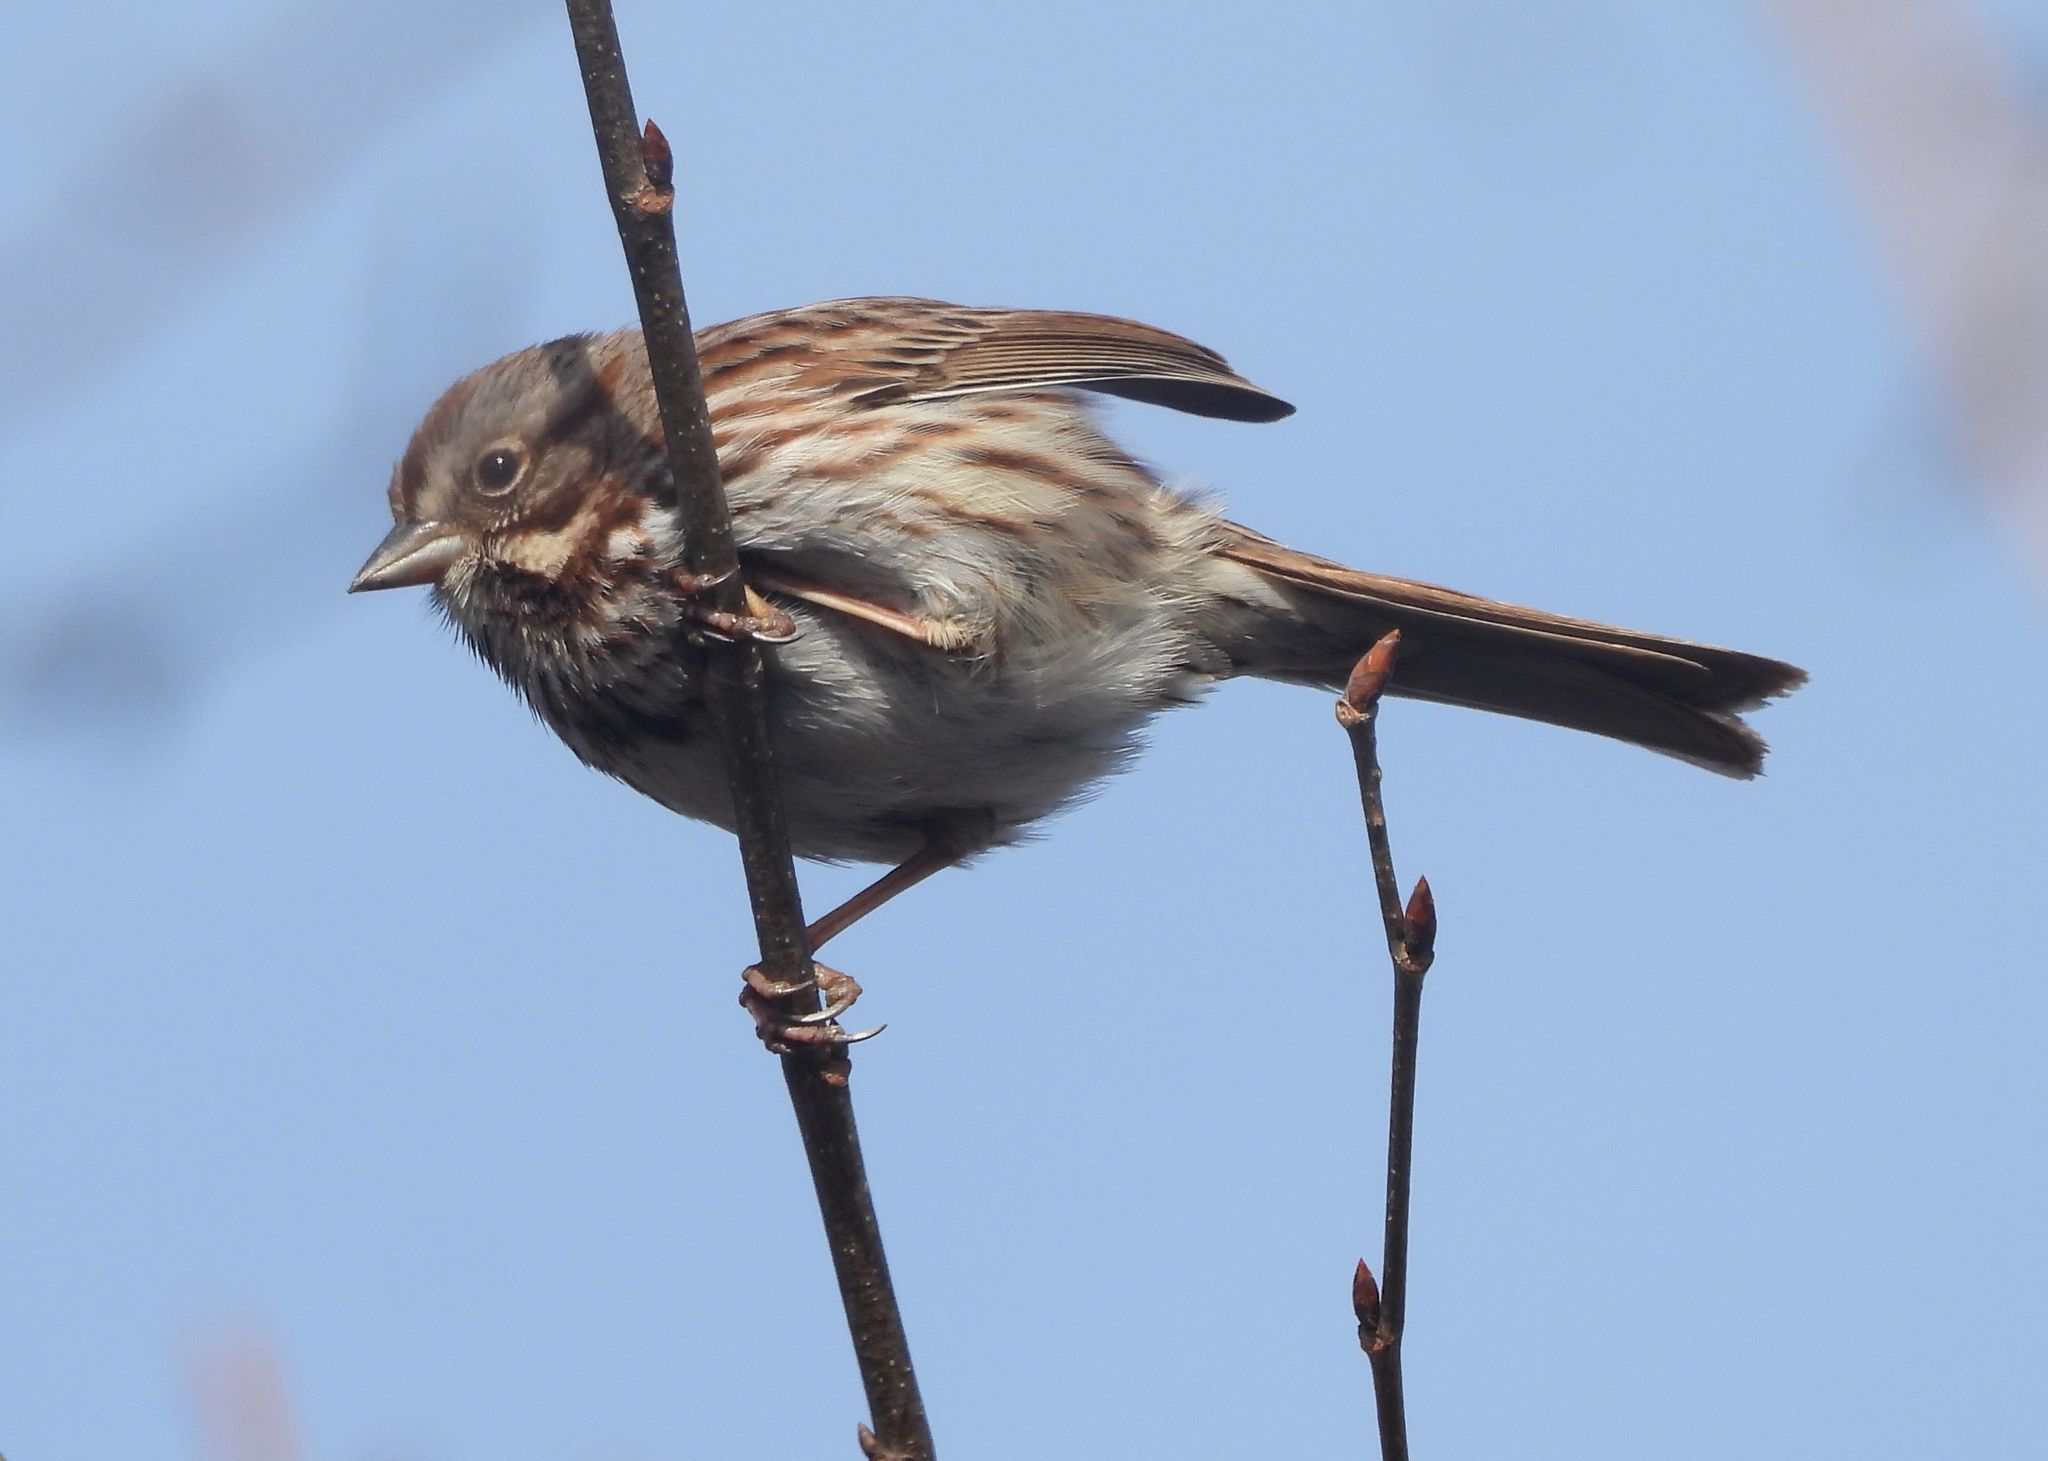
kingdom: Animalia
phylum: Chordata
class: Aves
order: Passeriformes
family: Passerellidae
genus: Melospiza
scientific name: Melospiza melodia
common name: Song sparrow
